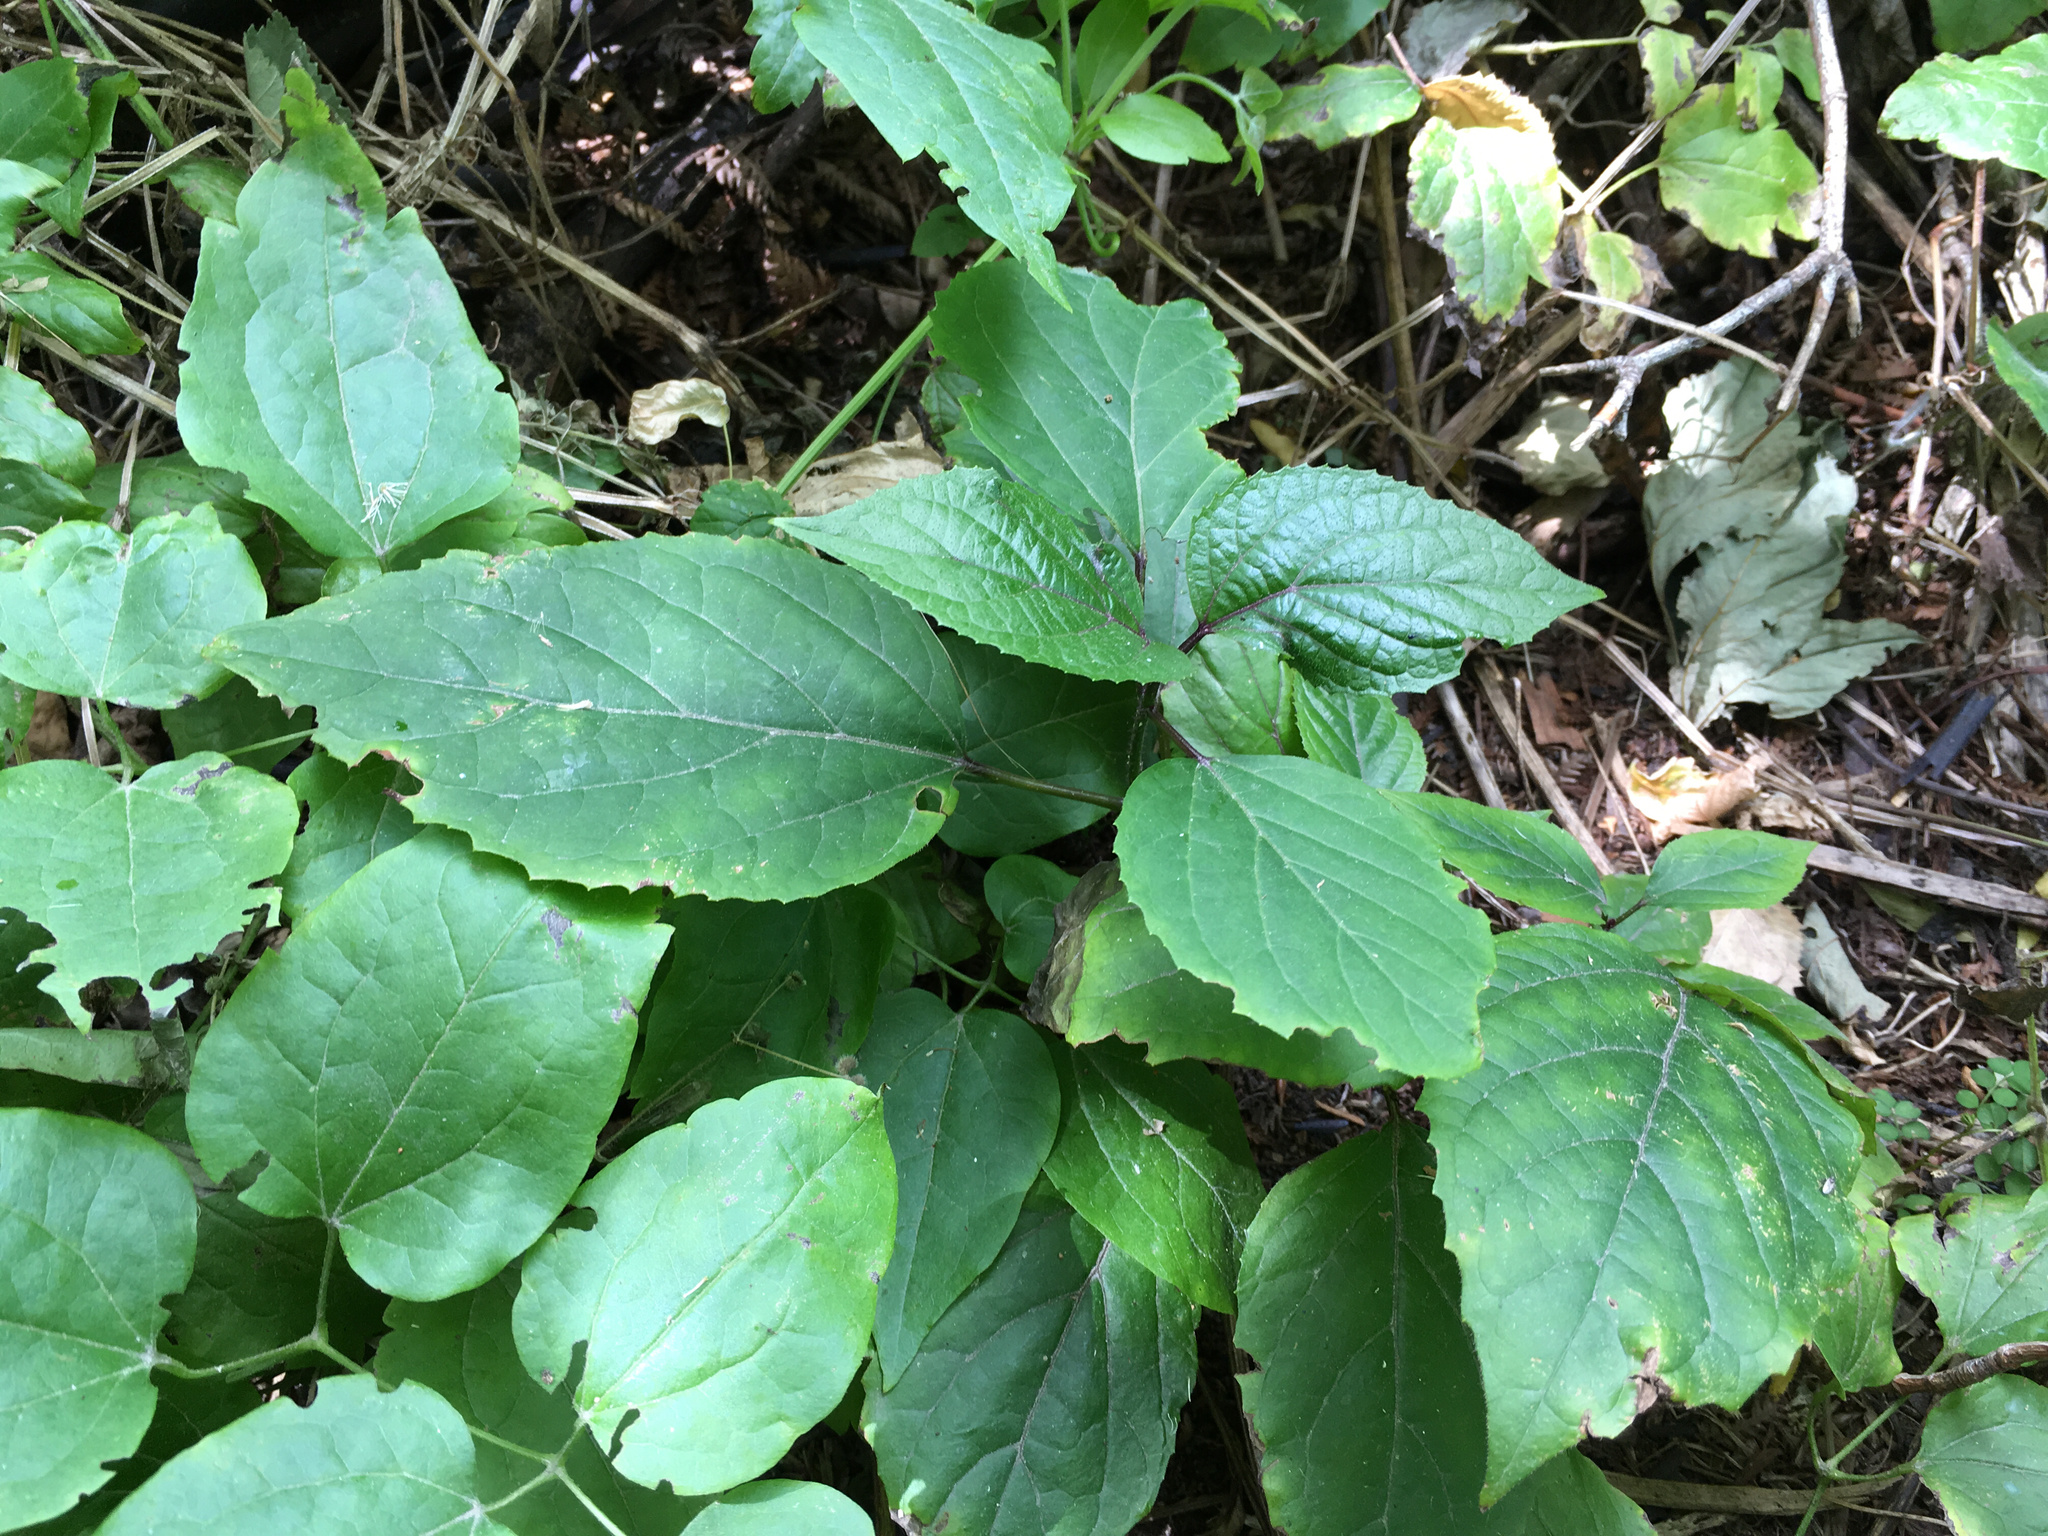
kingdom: Plantae
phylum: Tracheophyta
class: Magnoliopsida
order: Lamiales
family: Lamiaceae
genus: Clerodendrum
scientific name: Clerodendrum bungei
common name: Rose glorybower
